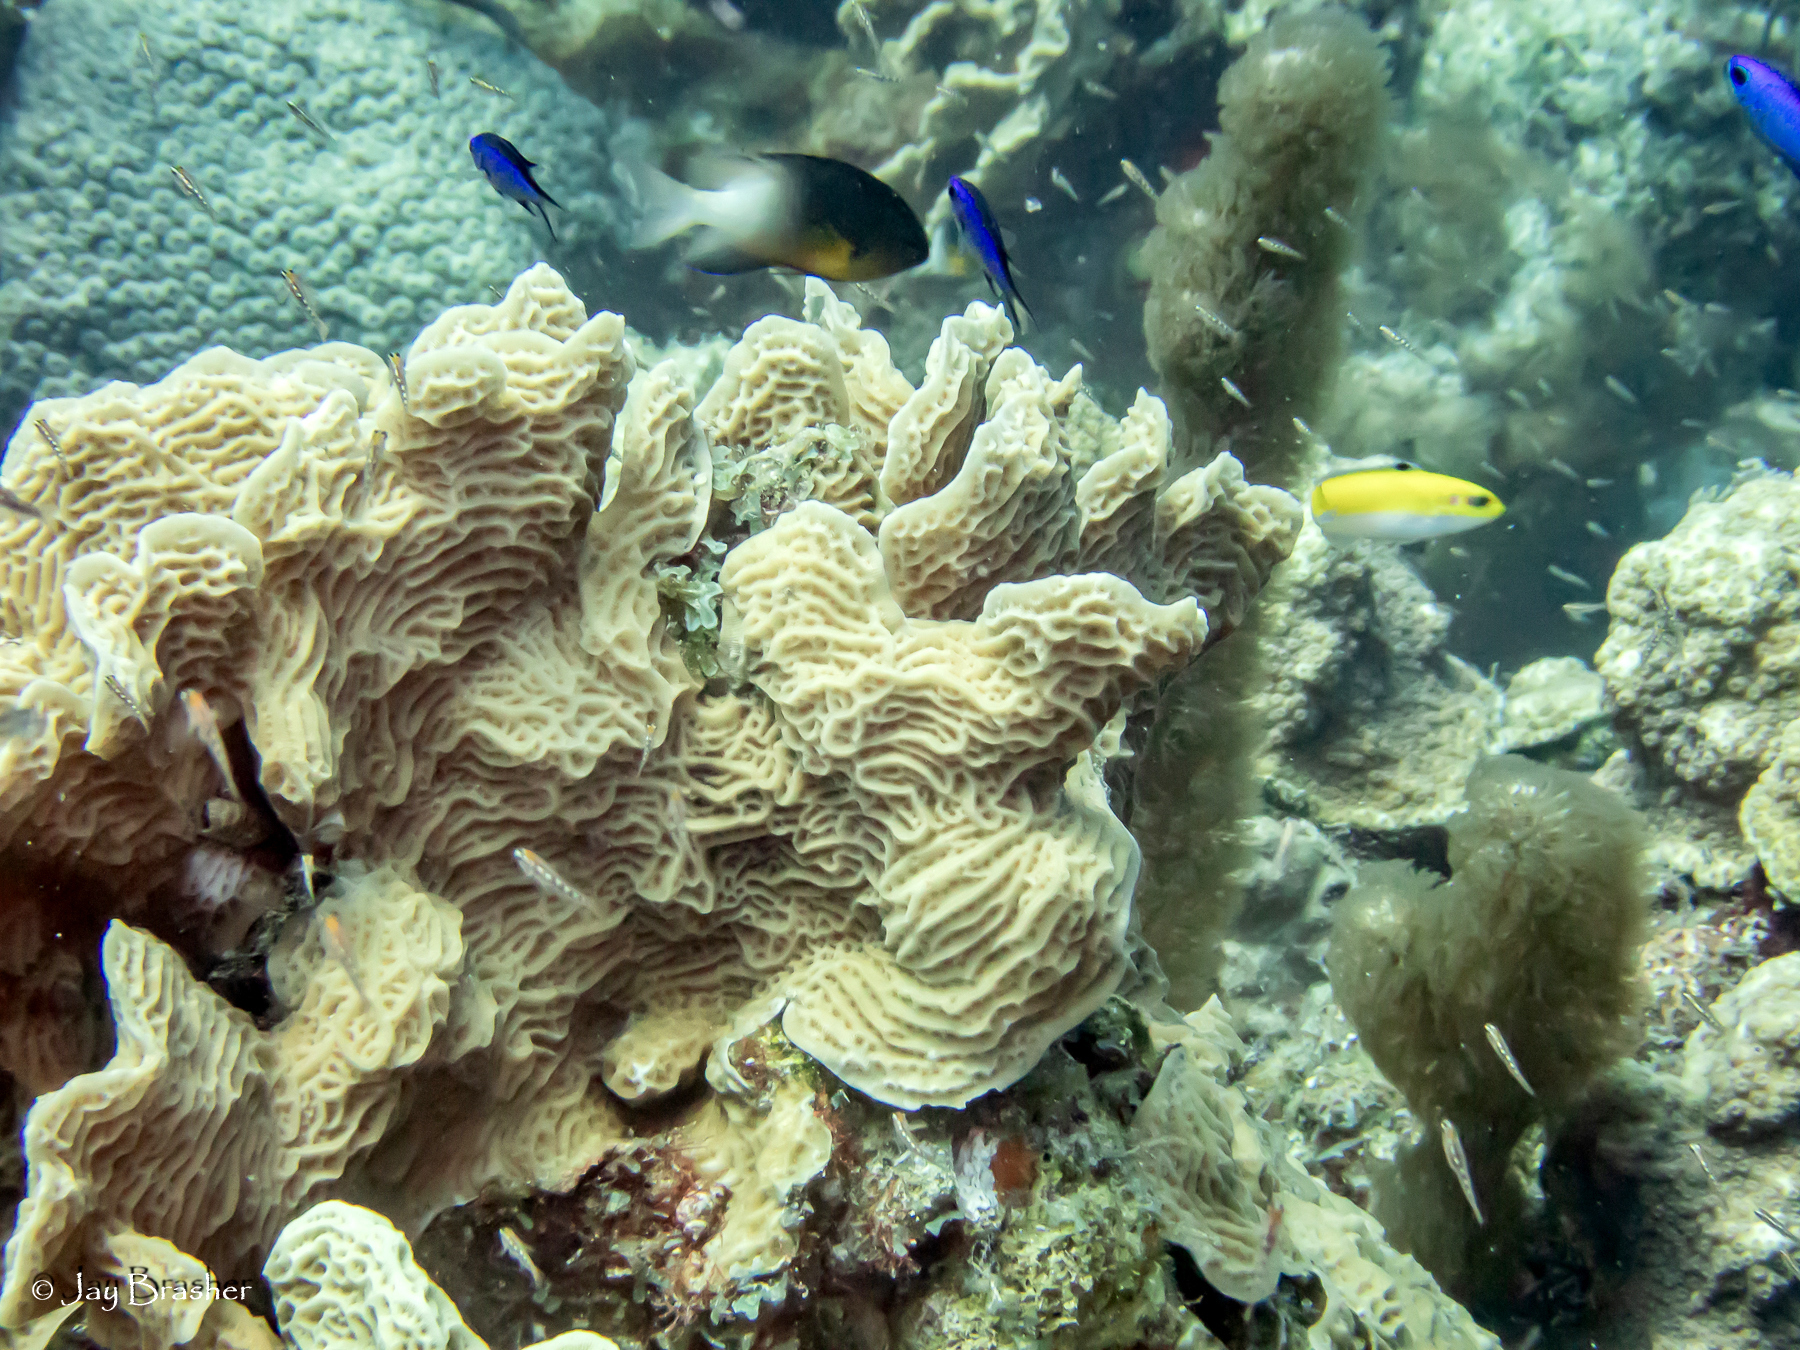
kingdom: Animalia
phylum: Chordata
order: Perciformes
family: Labridae
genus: Thalassoma
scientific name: Thalassoma bifasciatum
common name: Bluehead wrasse
